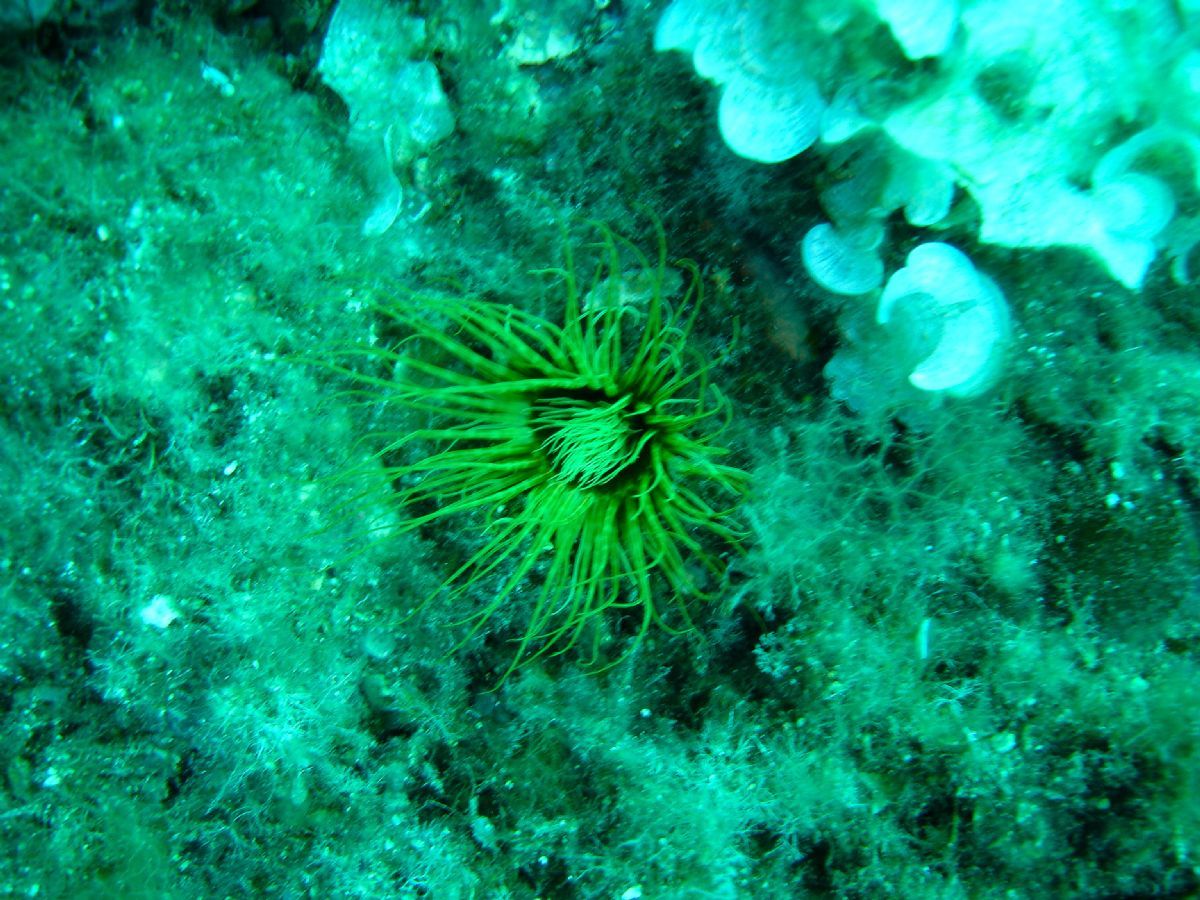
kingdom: Animalia
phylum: Cnidaria
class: Anthozoa
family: Cerianthidae
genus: Cerianthus
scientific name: Cerianthus membranaceus
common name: Cylinder anemone
